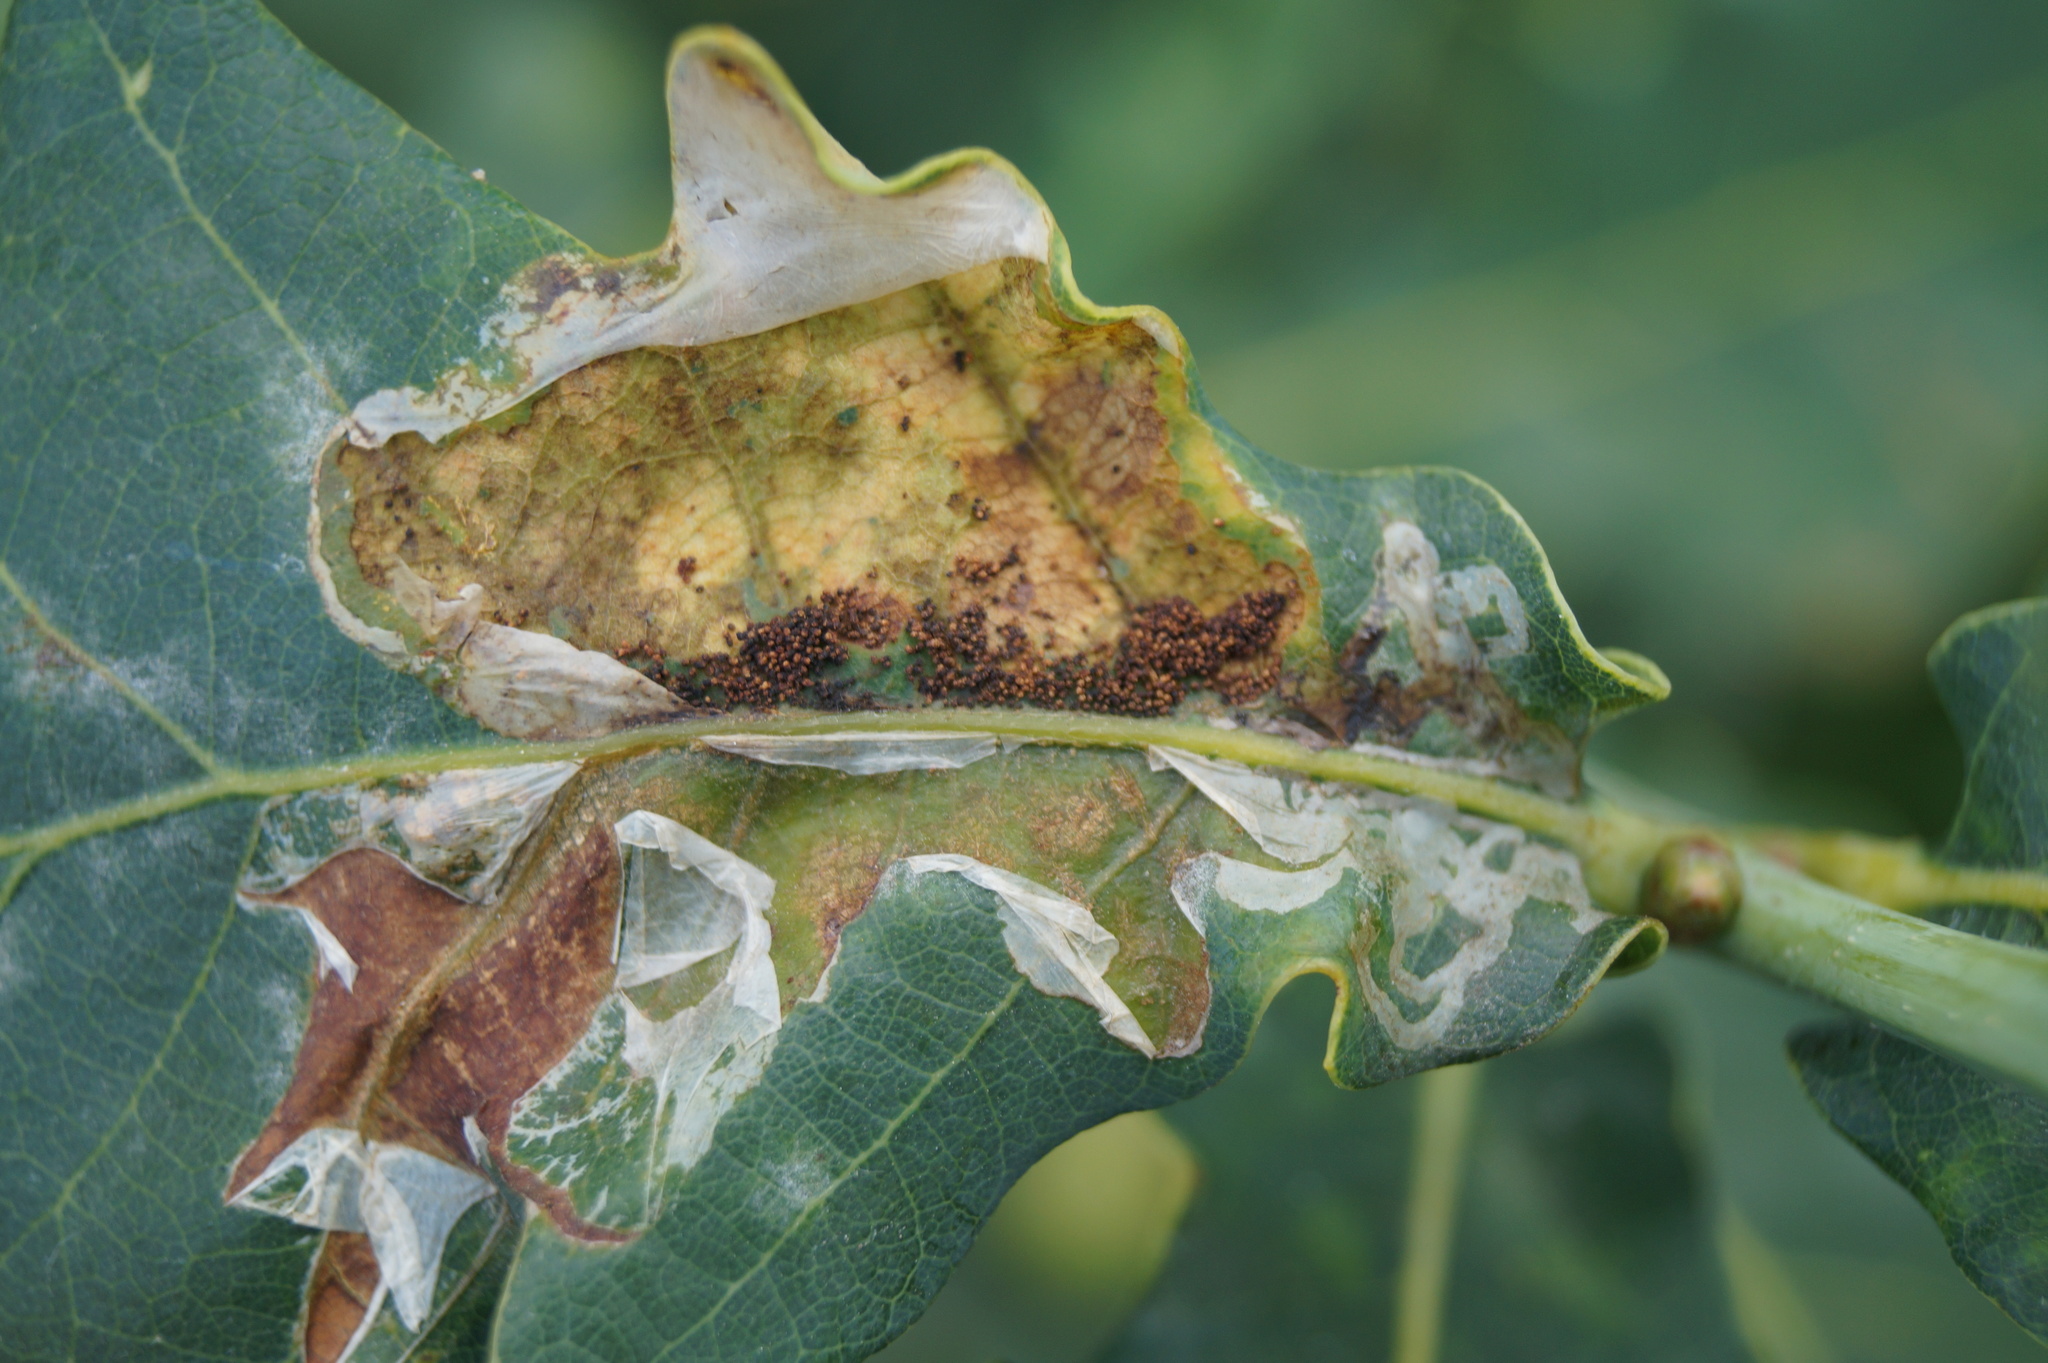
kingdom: Animalia
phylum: Arthropoda
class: Insecta
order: Lepidoptera
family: Gracillariidae
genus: Acrocercops
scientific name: Acrocercops brongniardella
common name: Brown oak slender
